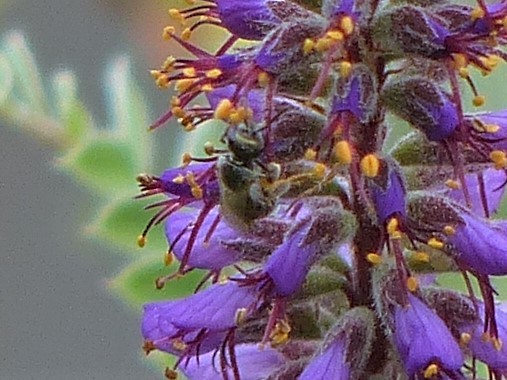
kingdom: Animalia
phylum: Arthropoda
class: Insecta
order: Hymenoptera
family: Halictidae
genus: Dialictus
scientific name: Dialictus
